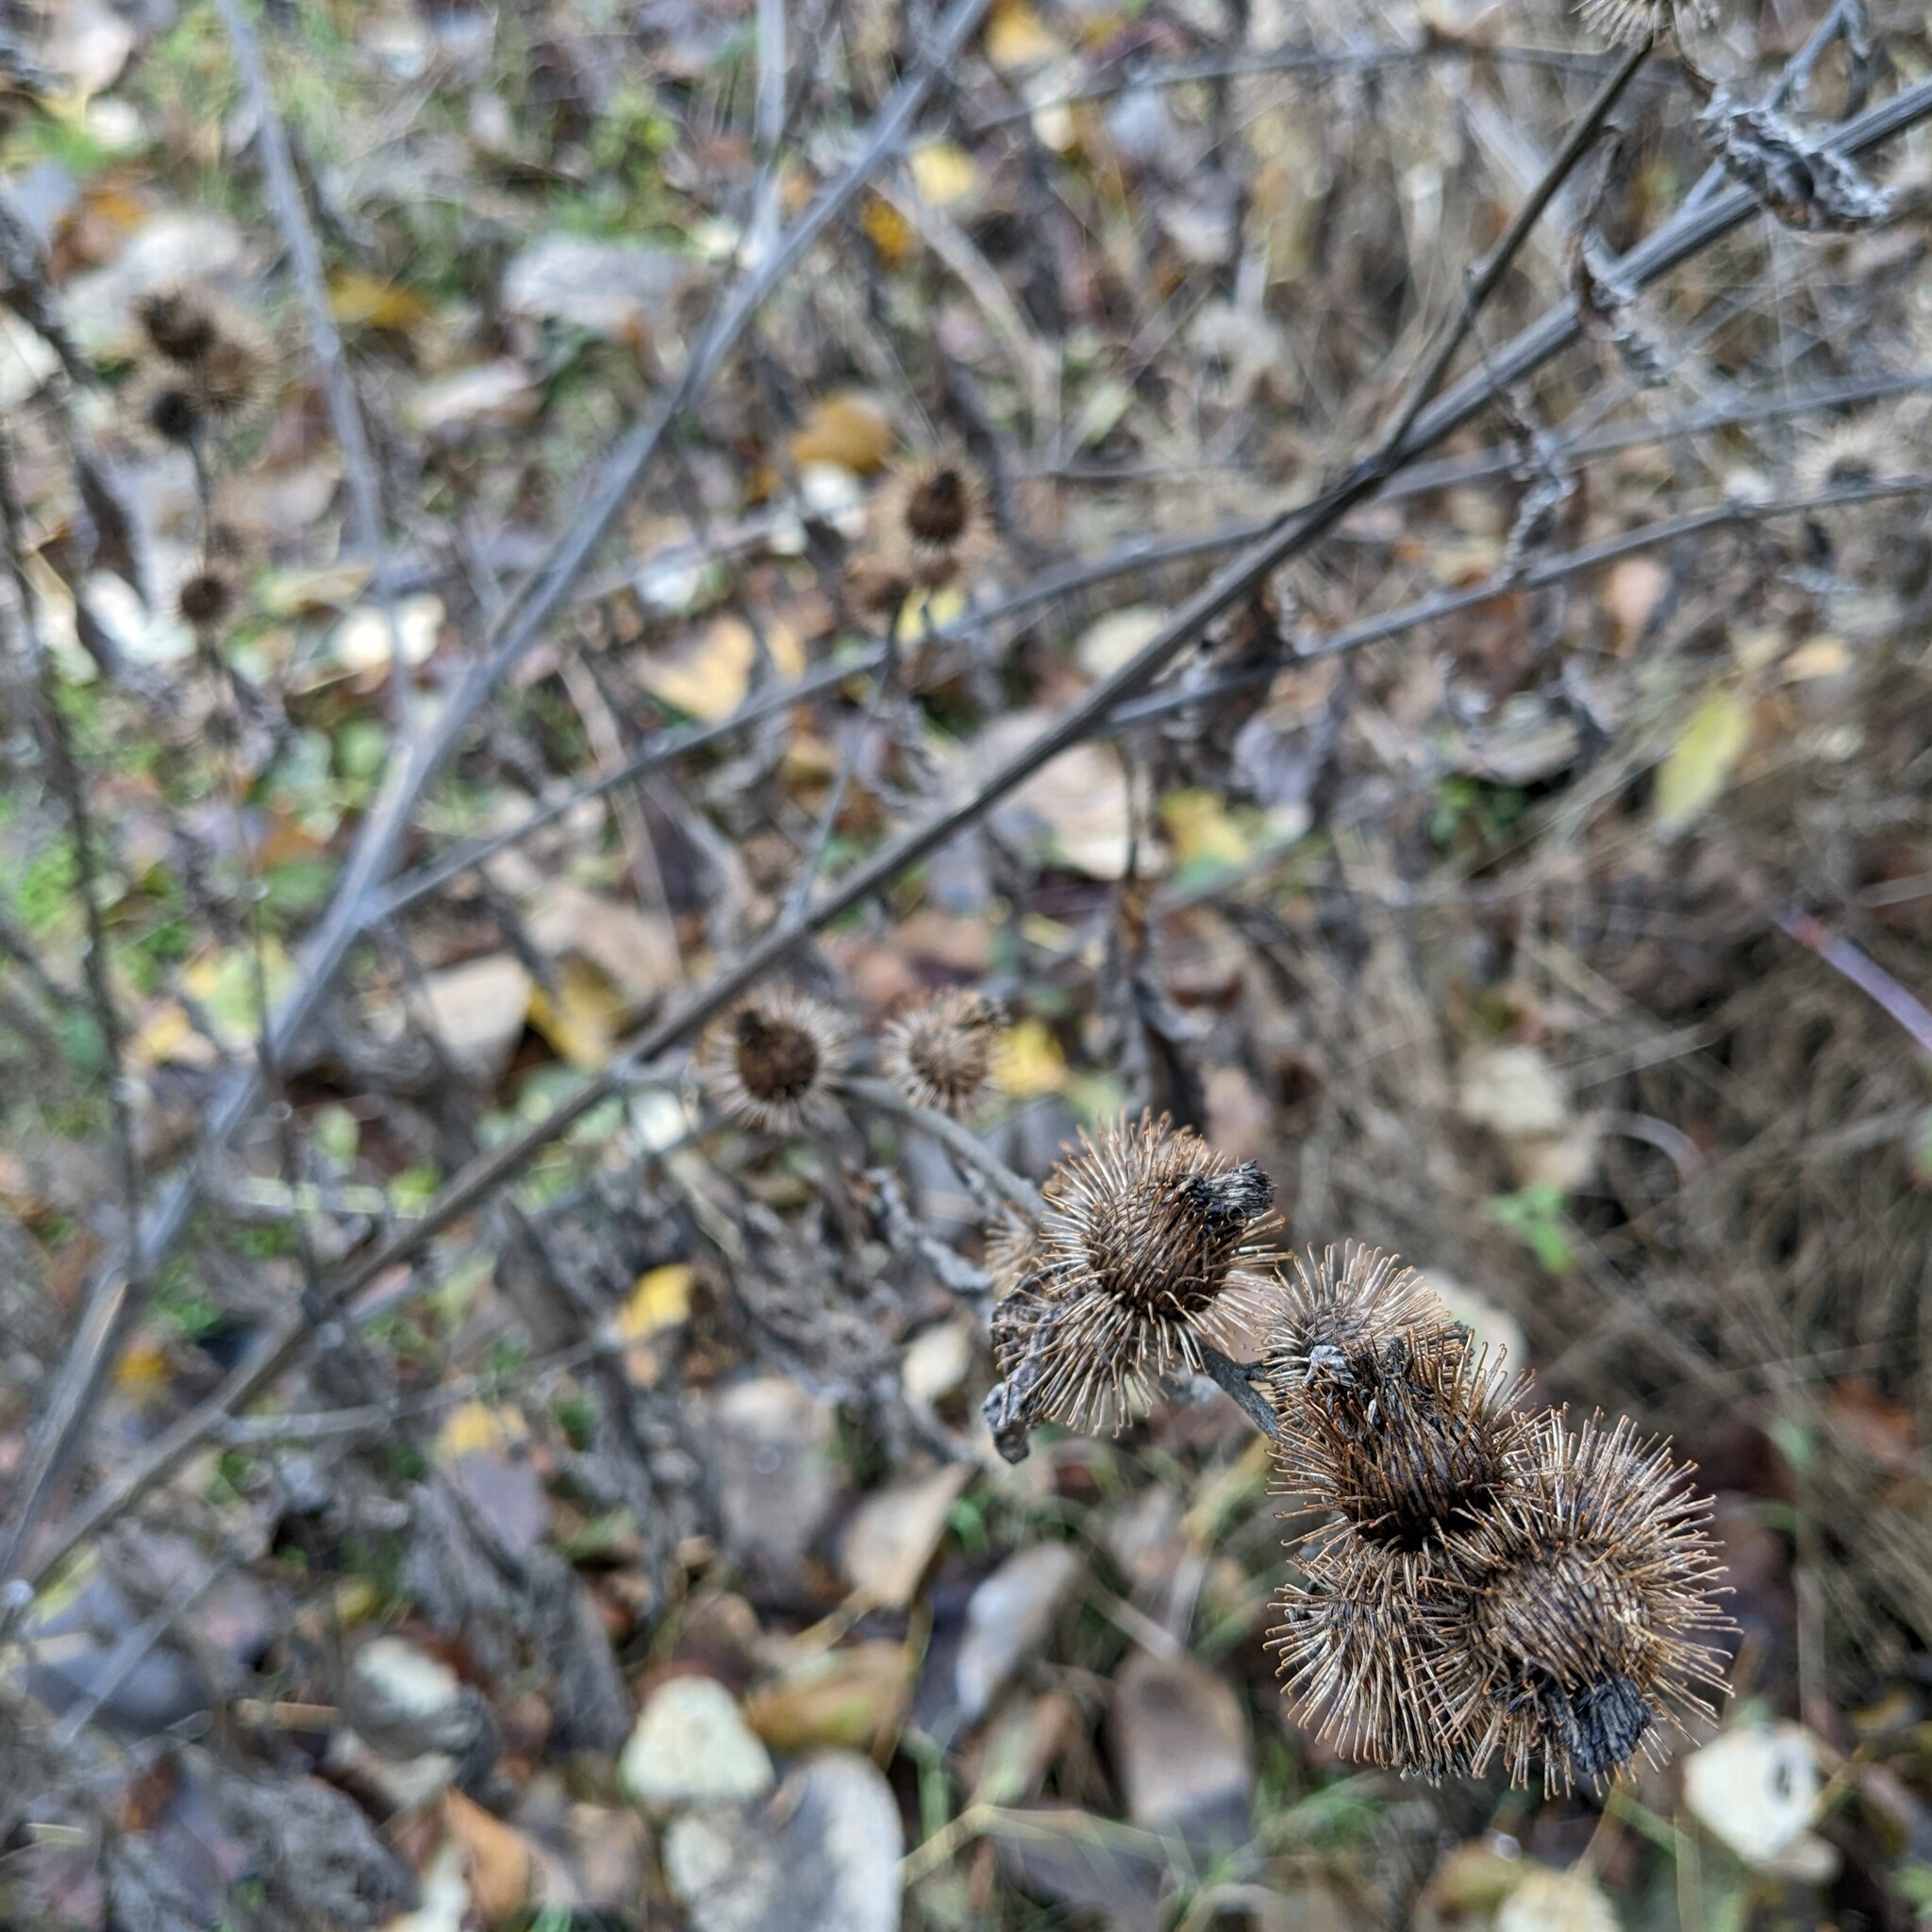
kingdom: Plantae
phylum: Tracheophyta
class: Magnoliopsida
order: Asterales
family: Asteraceae
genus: Arctium
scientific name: Arctium minus
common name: Lesser burdock
